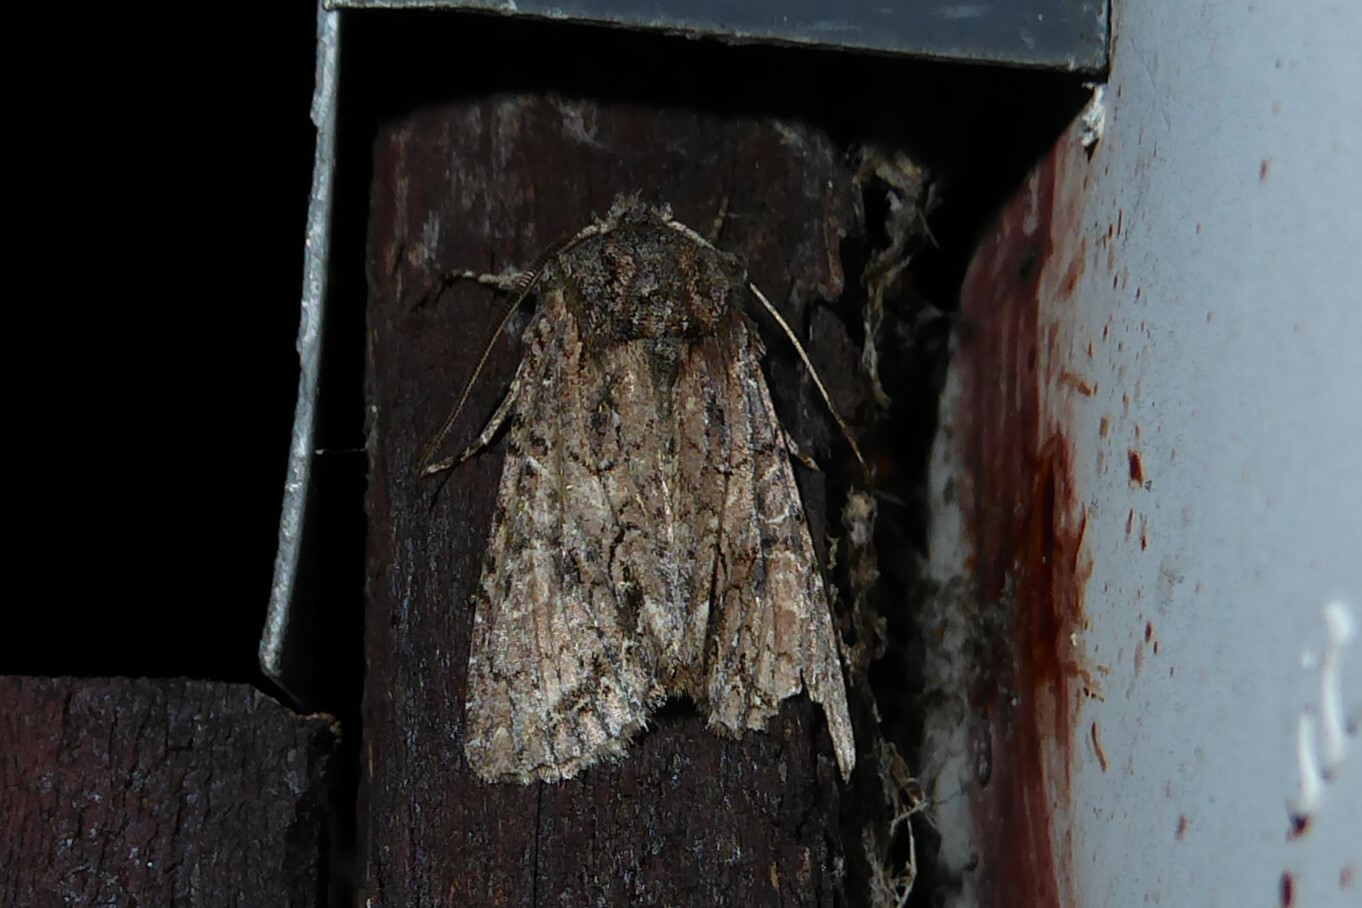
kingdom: Animalia
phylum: Arthropoda
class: Insecta
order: Lepidoptera
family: Noctuidae
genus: Ichneutica
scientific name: Ichneutica mutans
